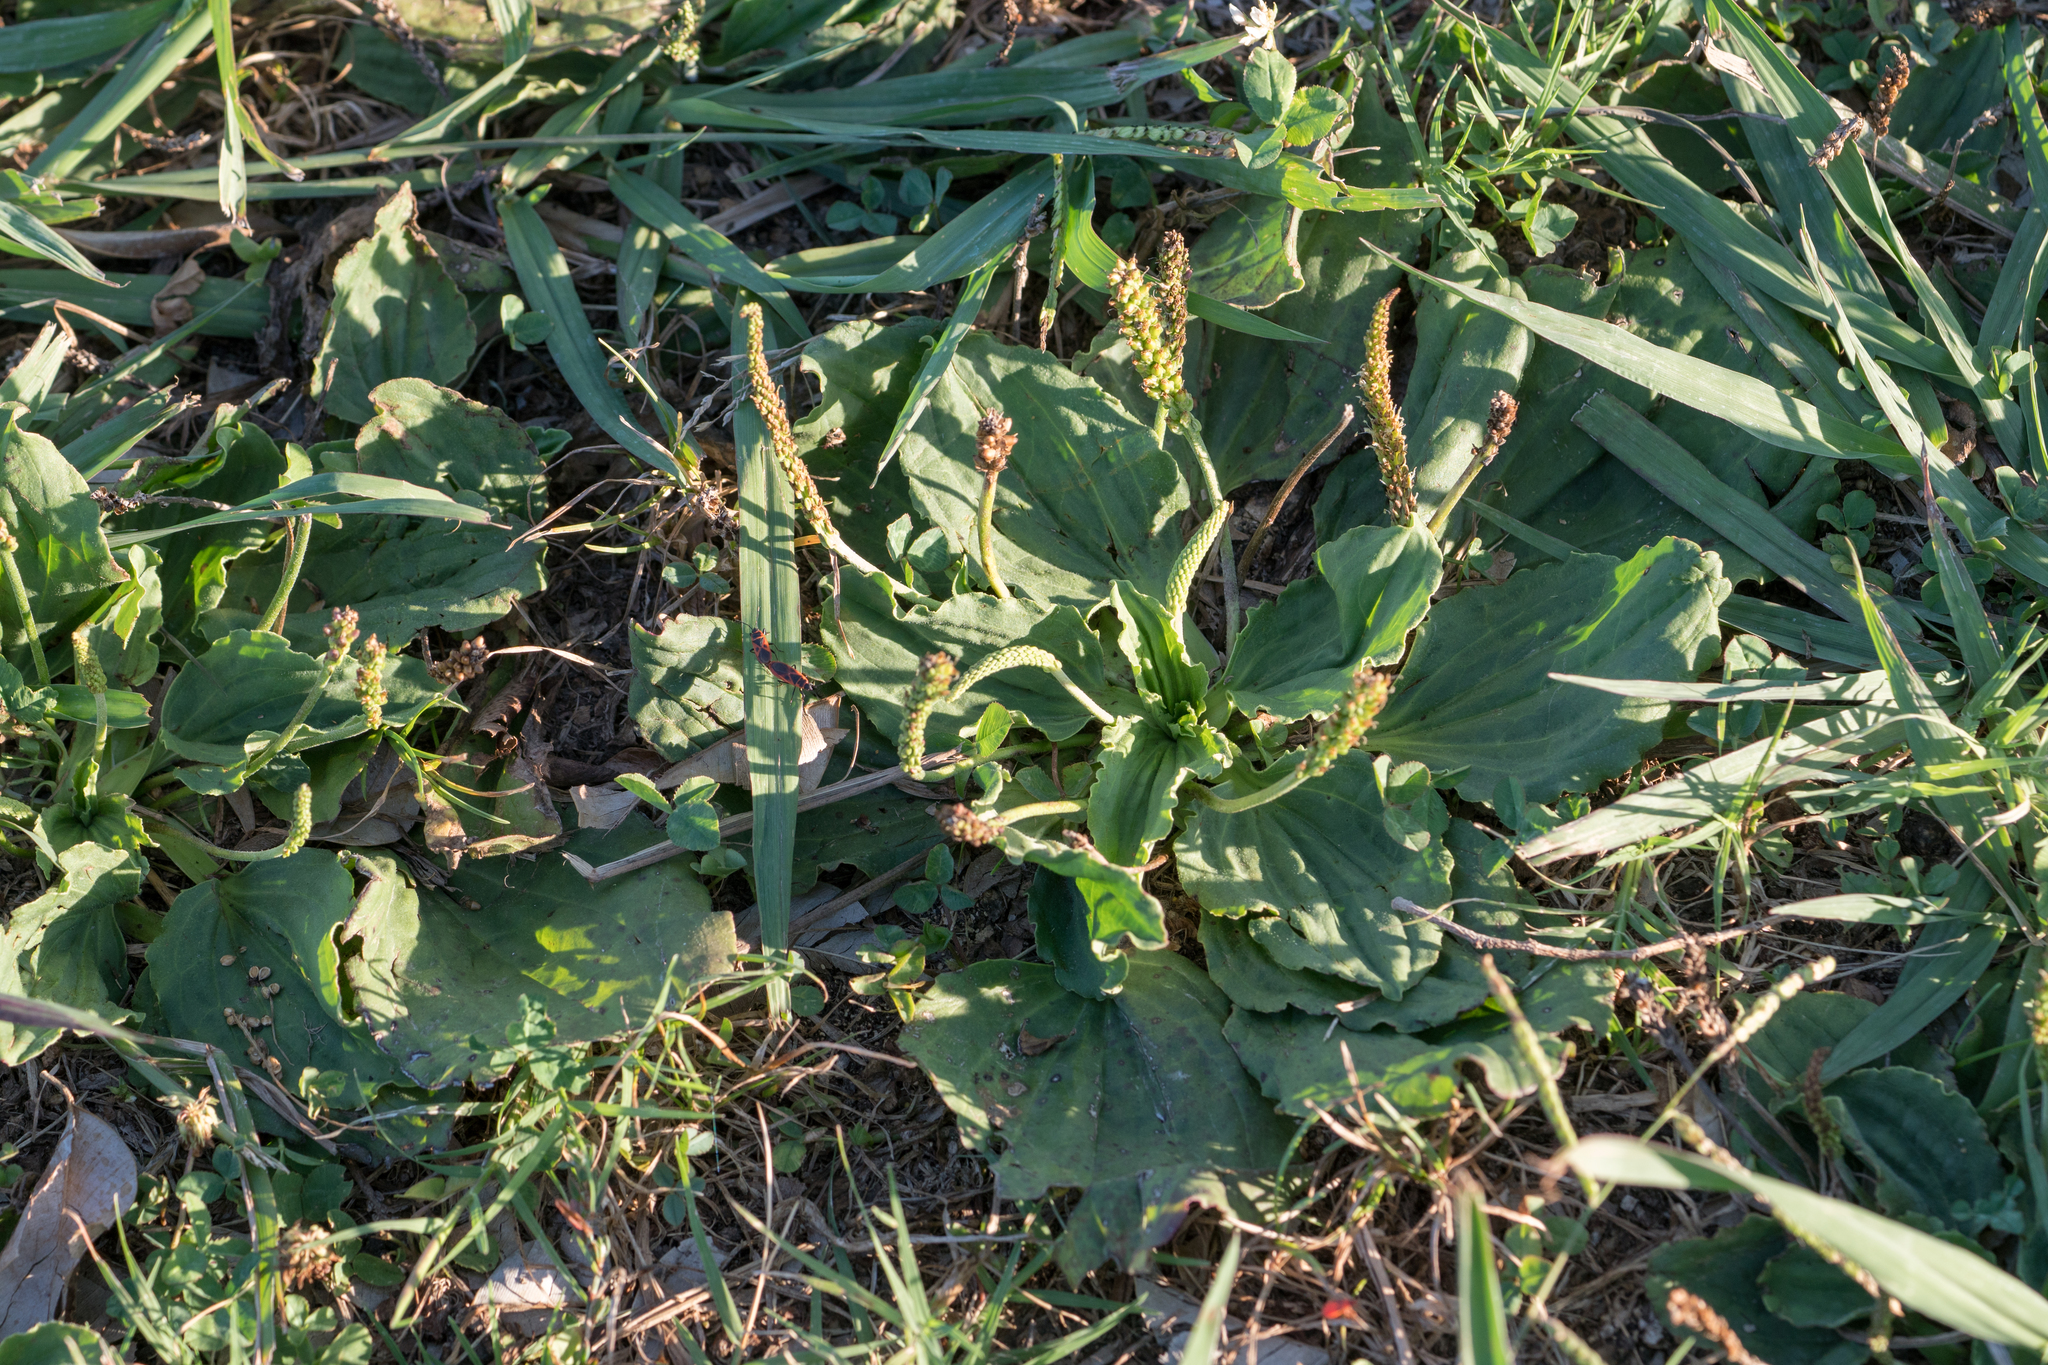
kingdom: Plantae
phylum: Tracheophyta
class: Magnoliopsida
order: Lamiales
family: Plantaginaceae
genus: Plantago
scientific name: Plantago major
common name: Common plantain
